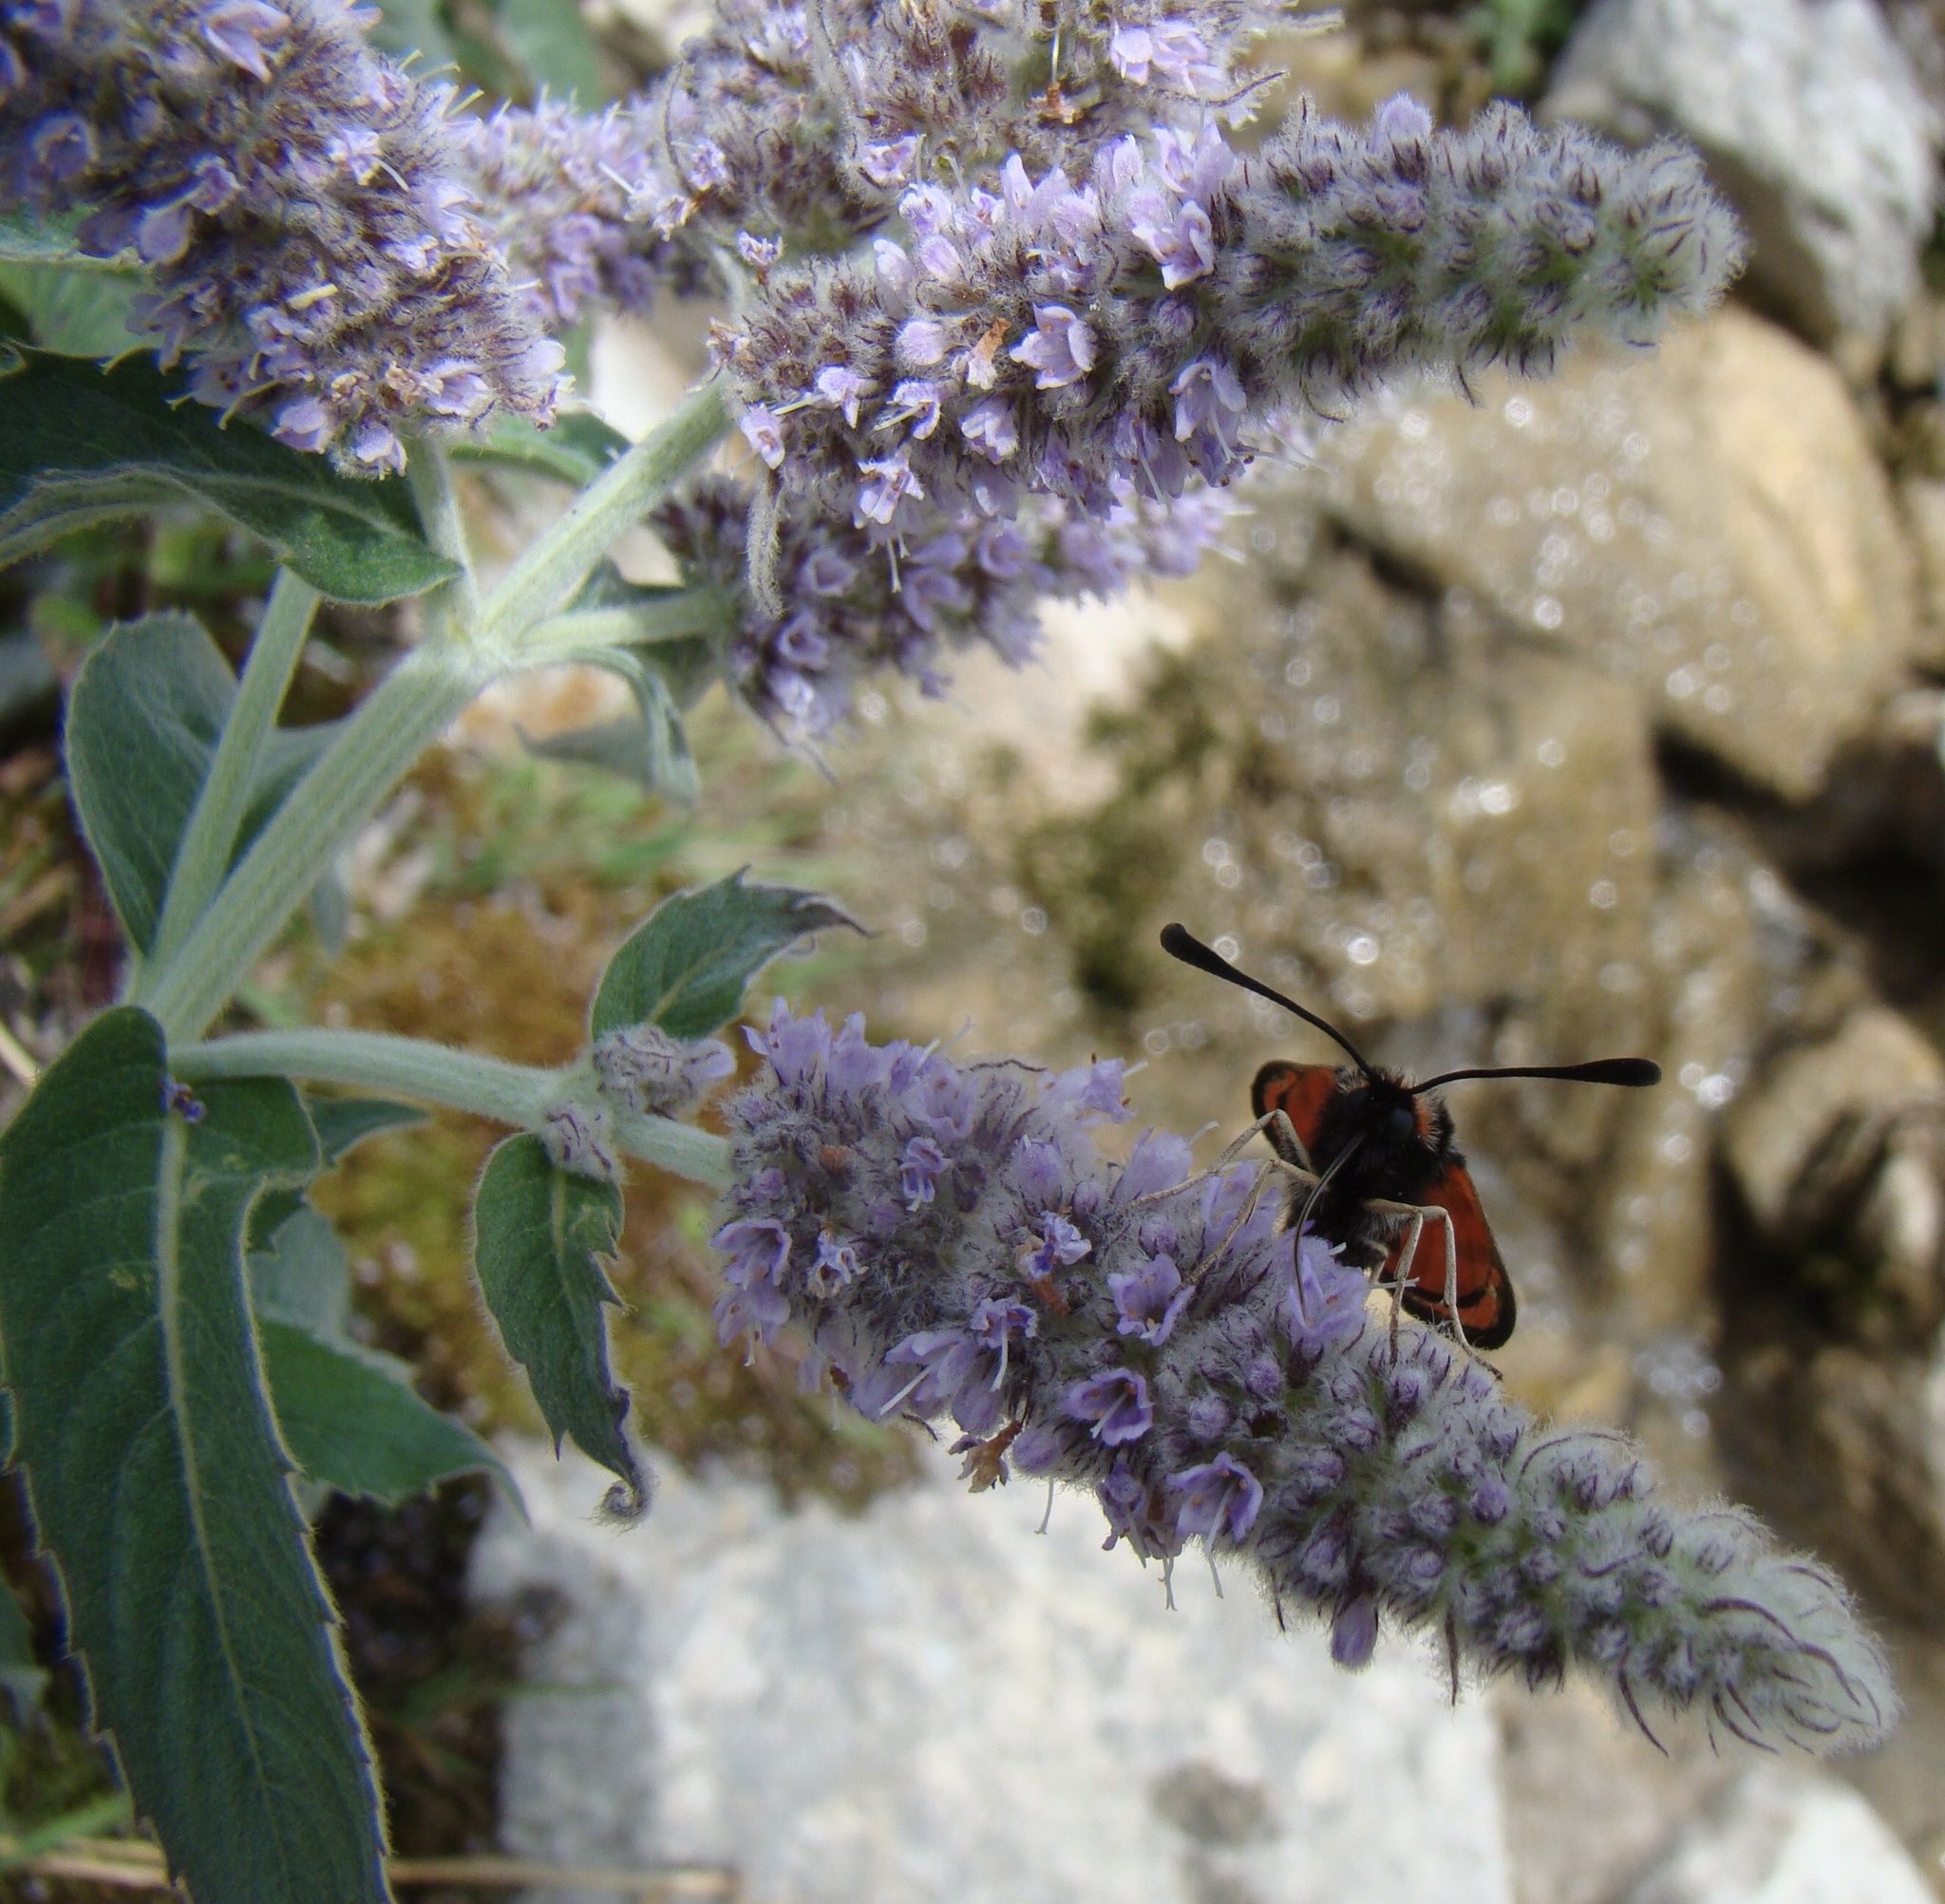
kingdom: Plantae
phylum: Tracheophyta
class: Magnoliopsida
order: Lamiales
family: Lamiaceae
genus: Mentha
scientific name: Mentha longifolia
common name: Horse mint
